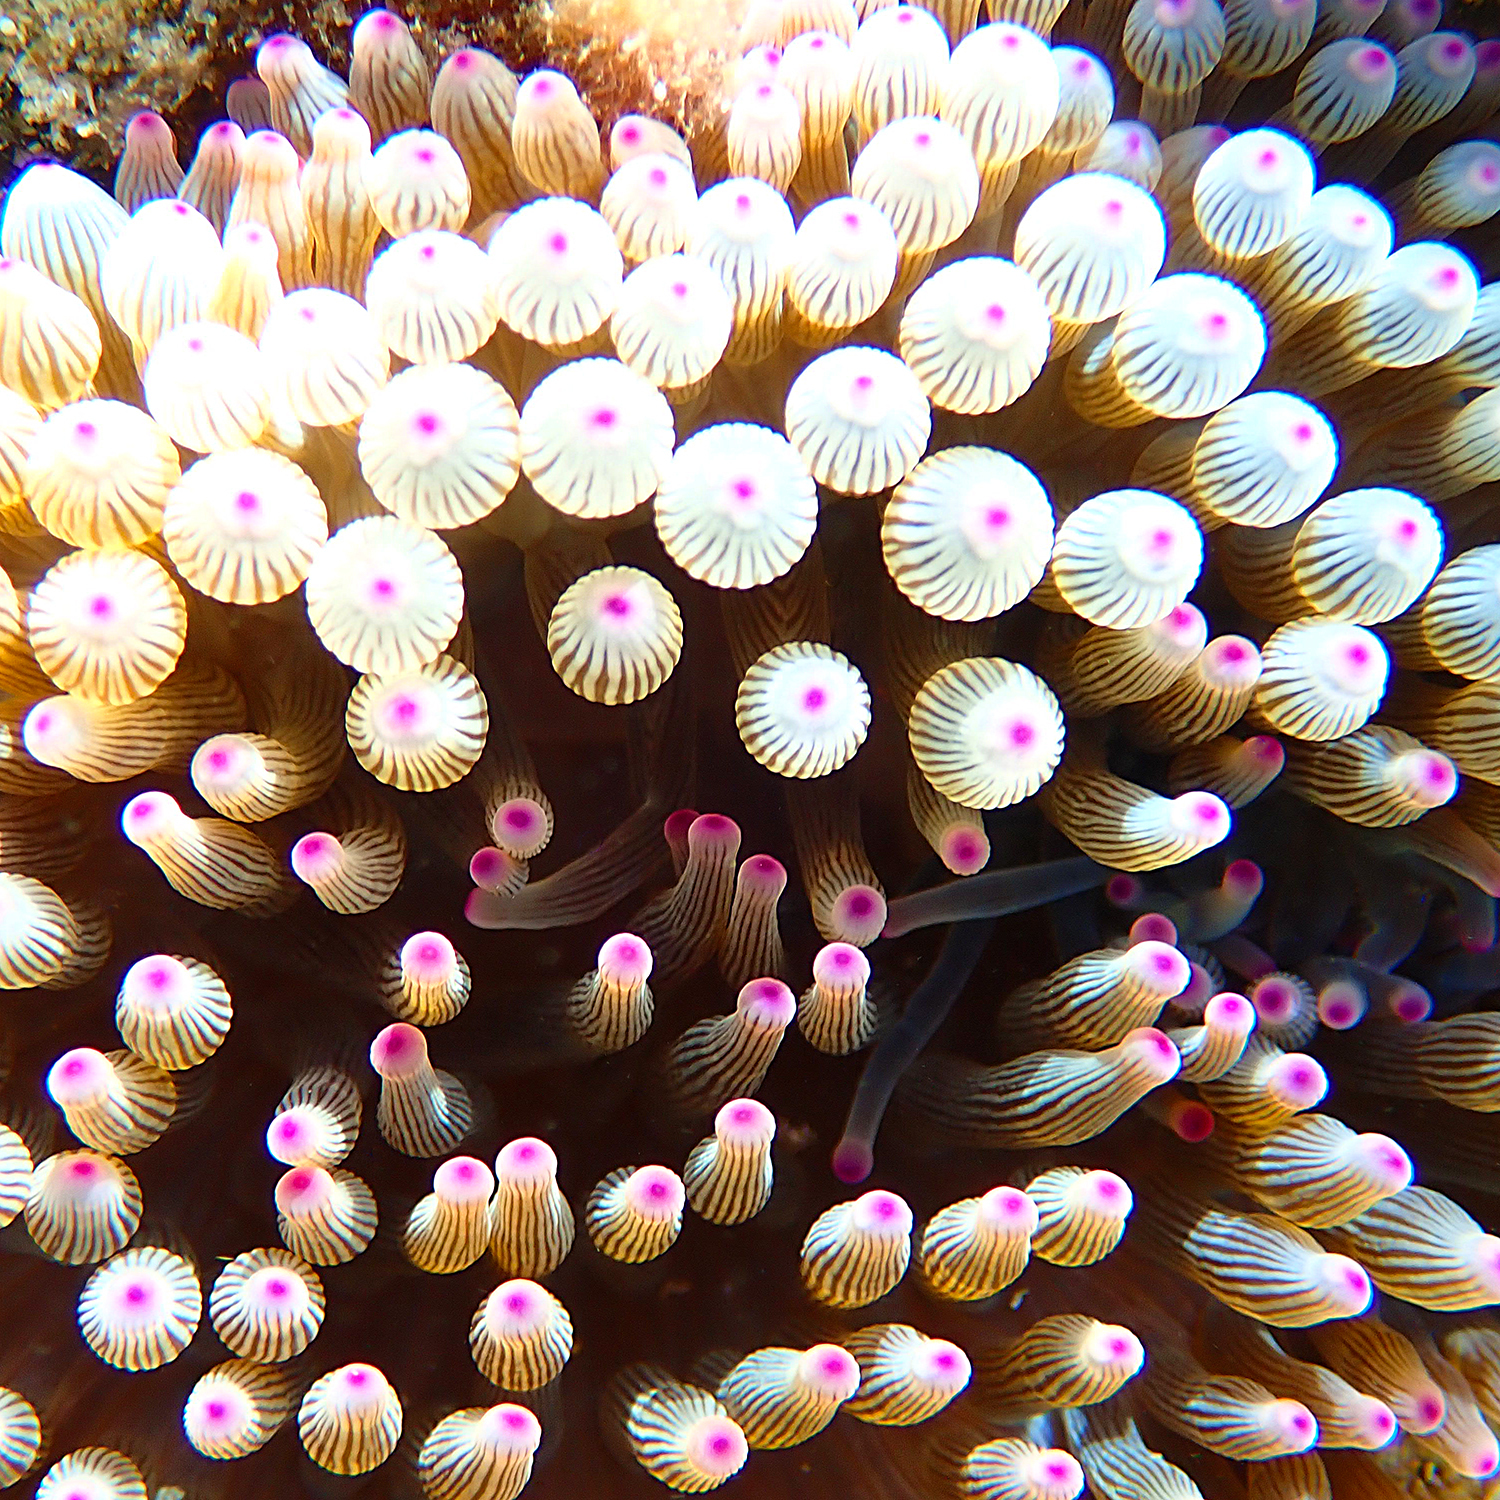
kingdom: Animalia
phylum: Cnidaria
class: Anthozoa
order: Actiniaria
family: Actiniidae
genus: Entacmaea
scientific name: Entacmaea quadricolor
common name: Bulb tentacle sea anemone
